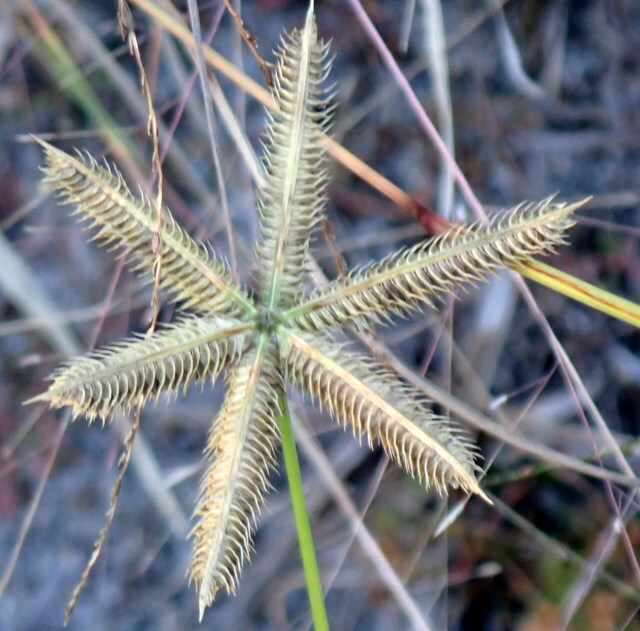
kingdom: Plantae
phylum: Tracheophyta
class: Liliopsida
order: Poales
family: Poaceae
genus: Dactyloctenium
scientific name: Dactyloctenium aegyptium
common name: Egyptian grass
